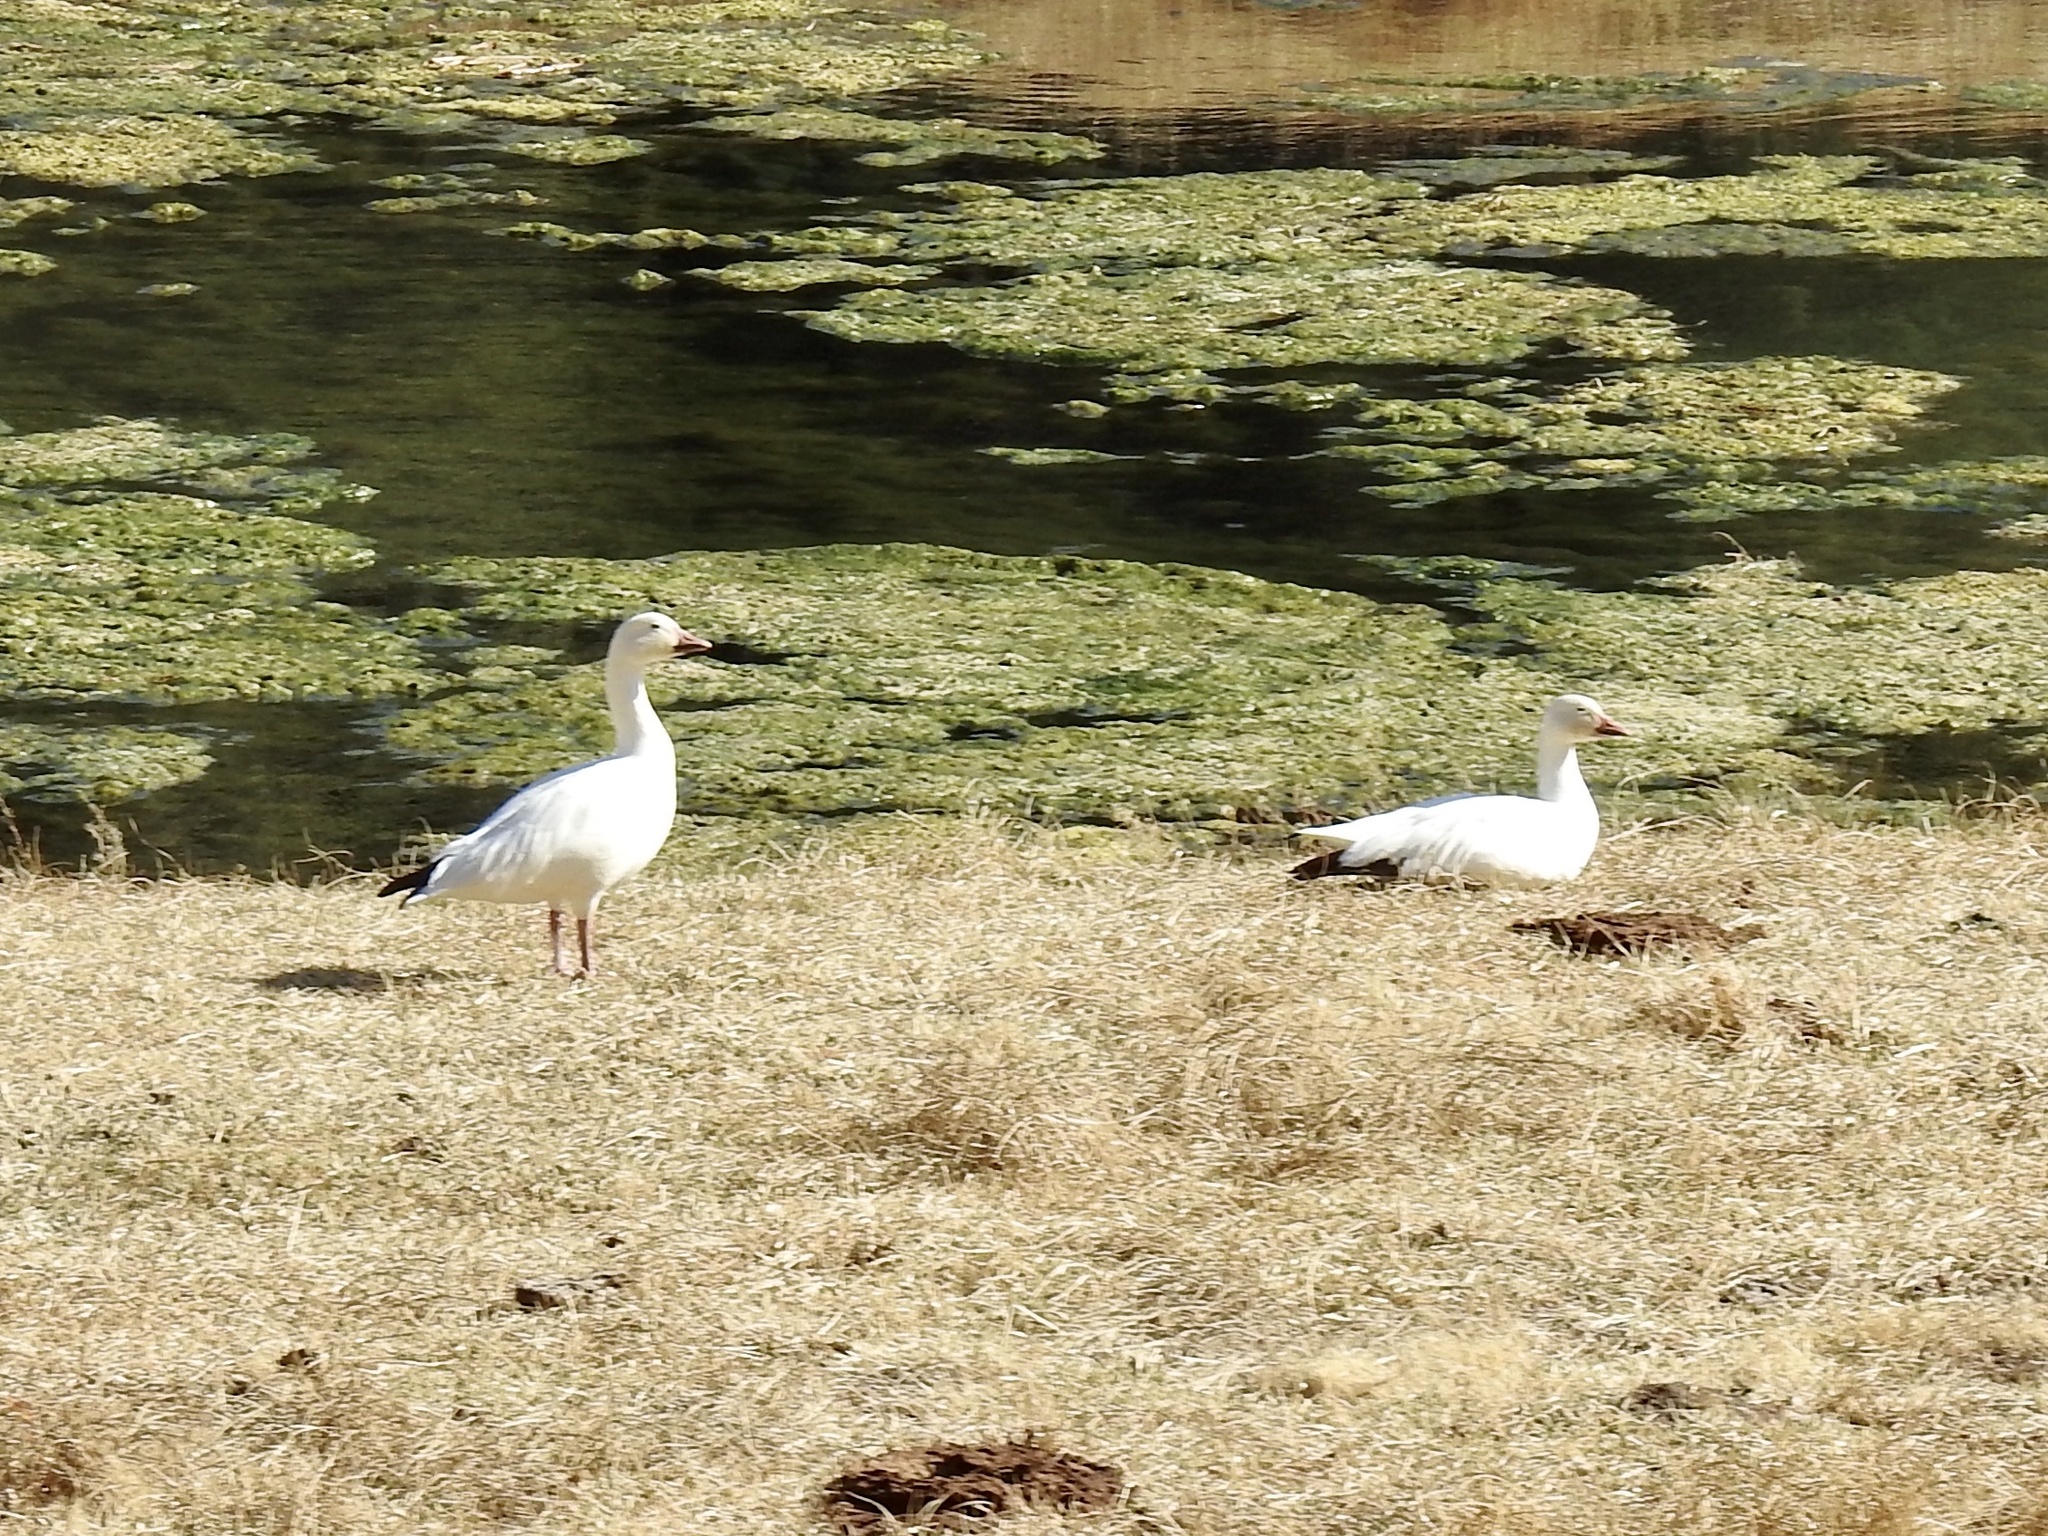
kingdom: Animalia
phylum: Chordata
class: Aves
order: Anseriformes
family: Anatidae
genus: Anser
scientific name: Anser caerulescens
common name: Snow goose
